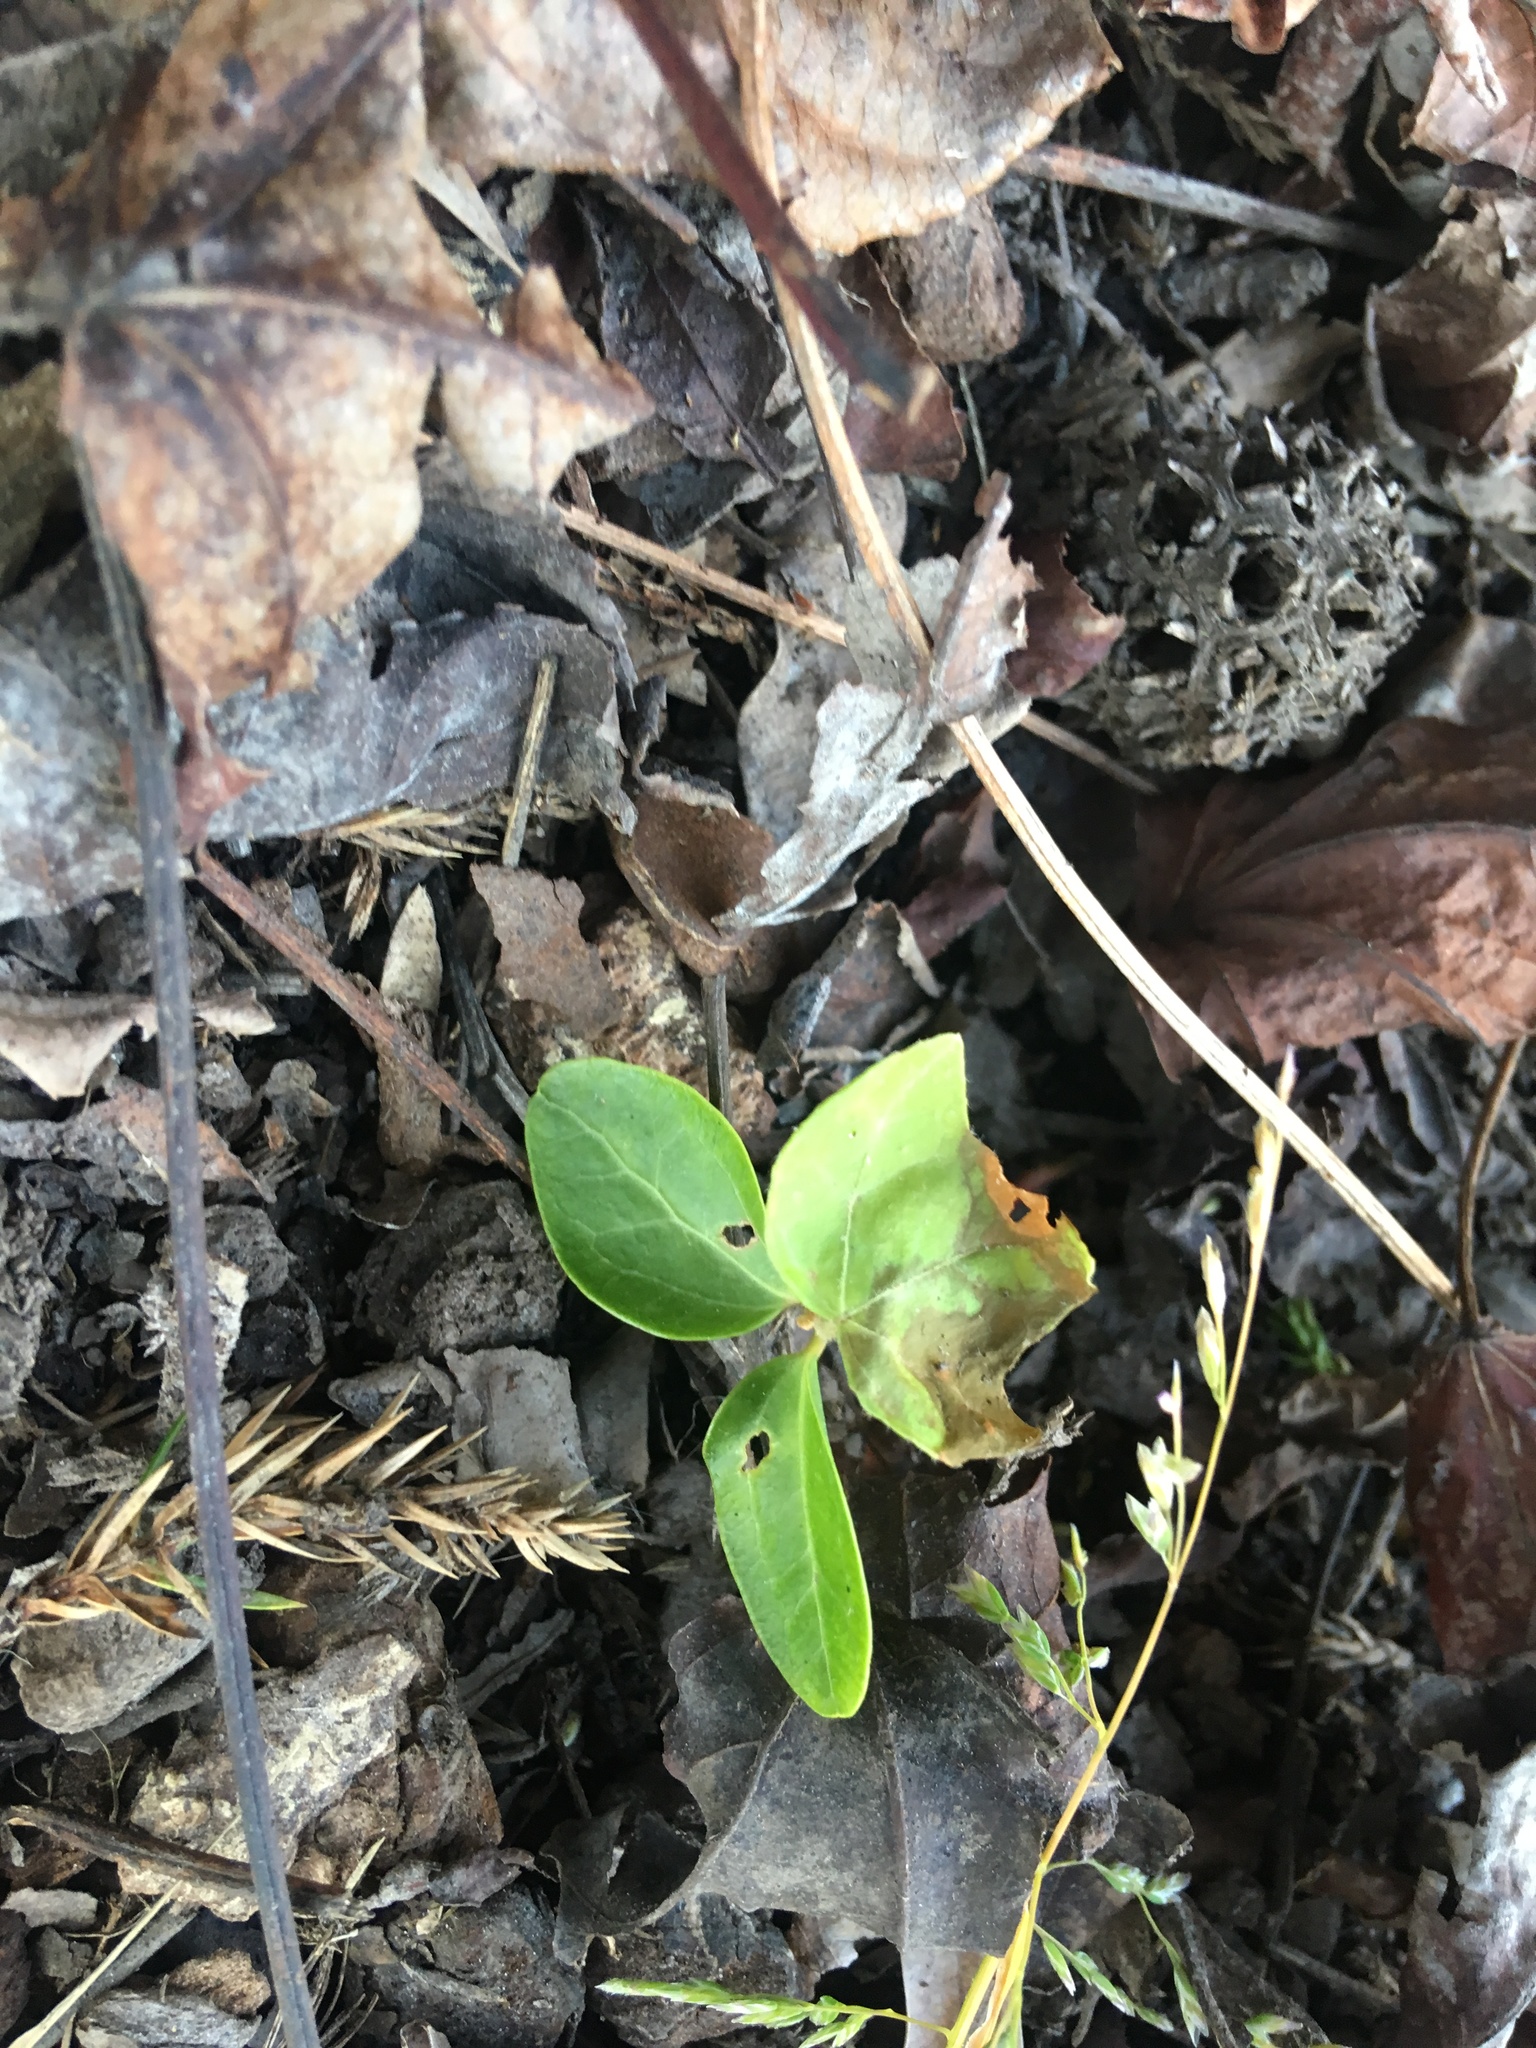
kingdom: Plantae
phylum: Tracheophyta
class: Magnoliopsida
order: Apiales
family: Araliaceae
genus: Hedera
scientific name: Hedera helix
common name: Ivy
